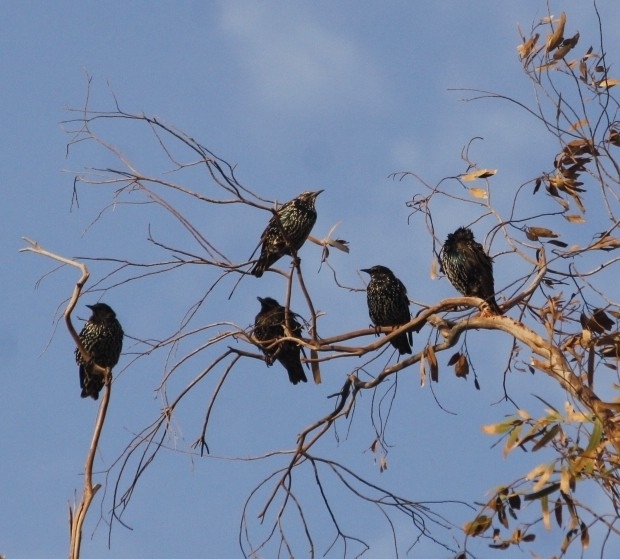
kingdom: Animalia
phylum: Chordata
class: Aves
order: Passeriformes
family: Sturnidae
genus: Sturnus
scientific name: Sturnus vulgaris
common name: Common starling
